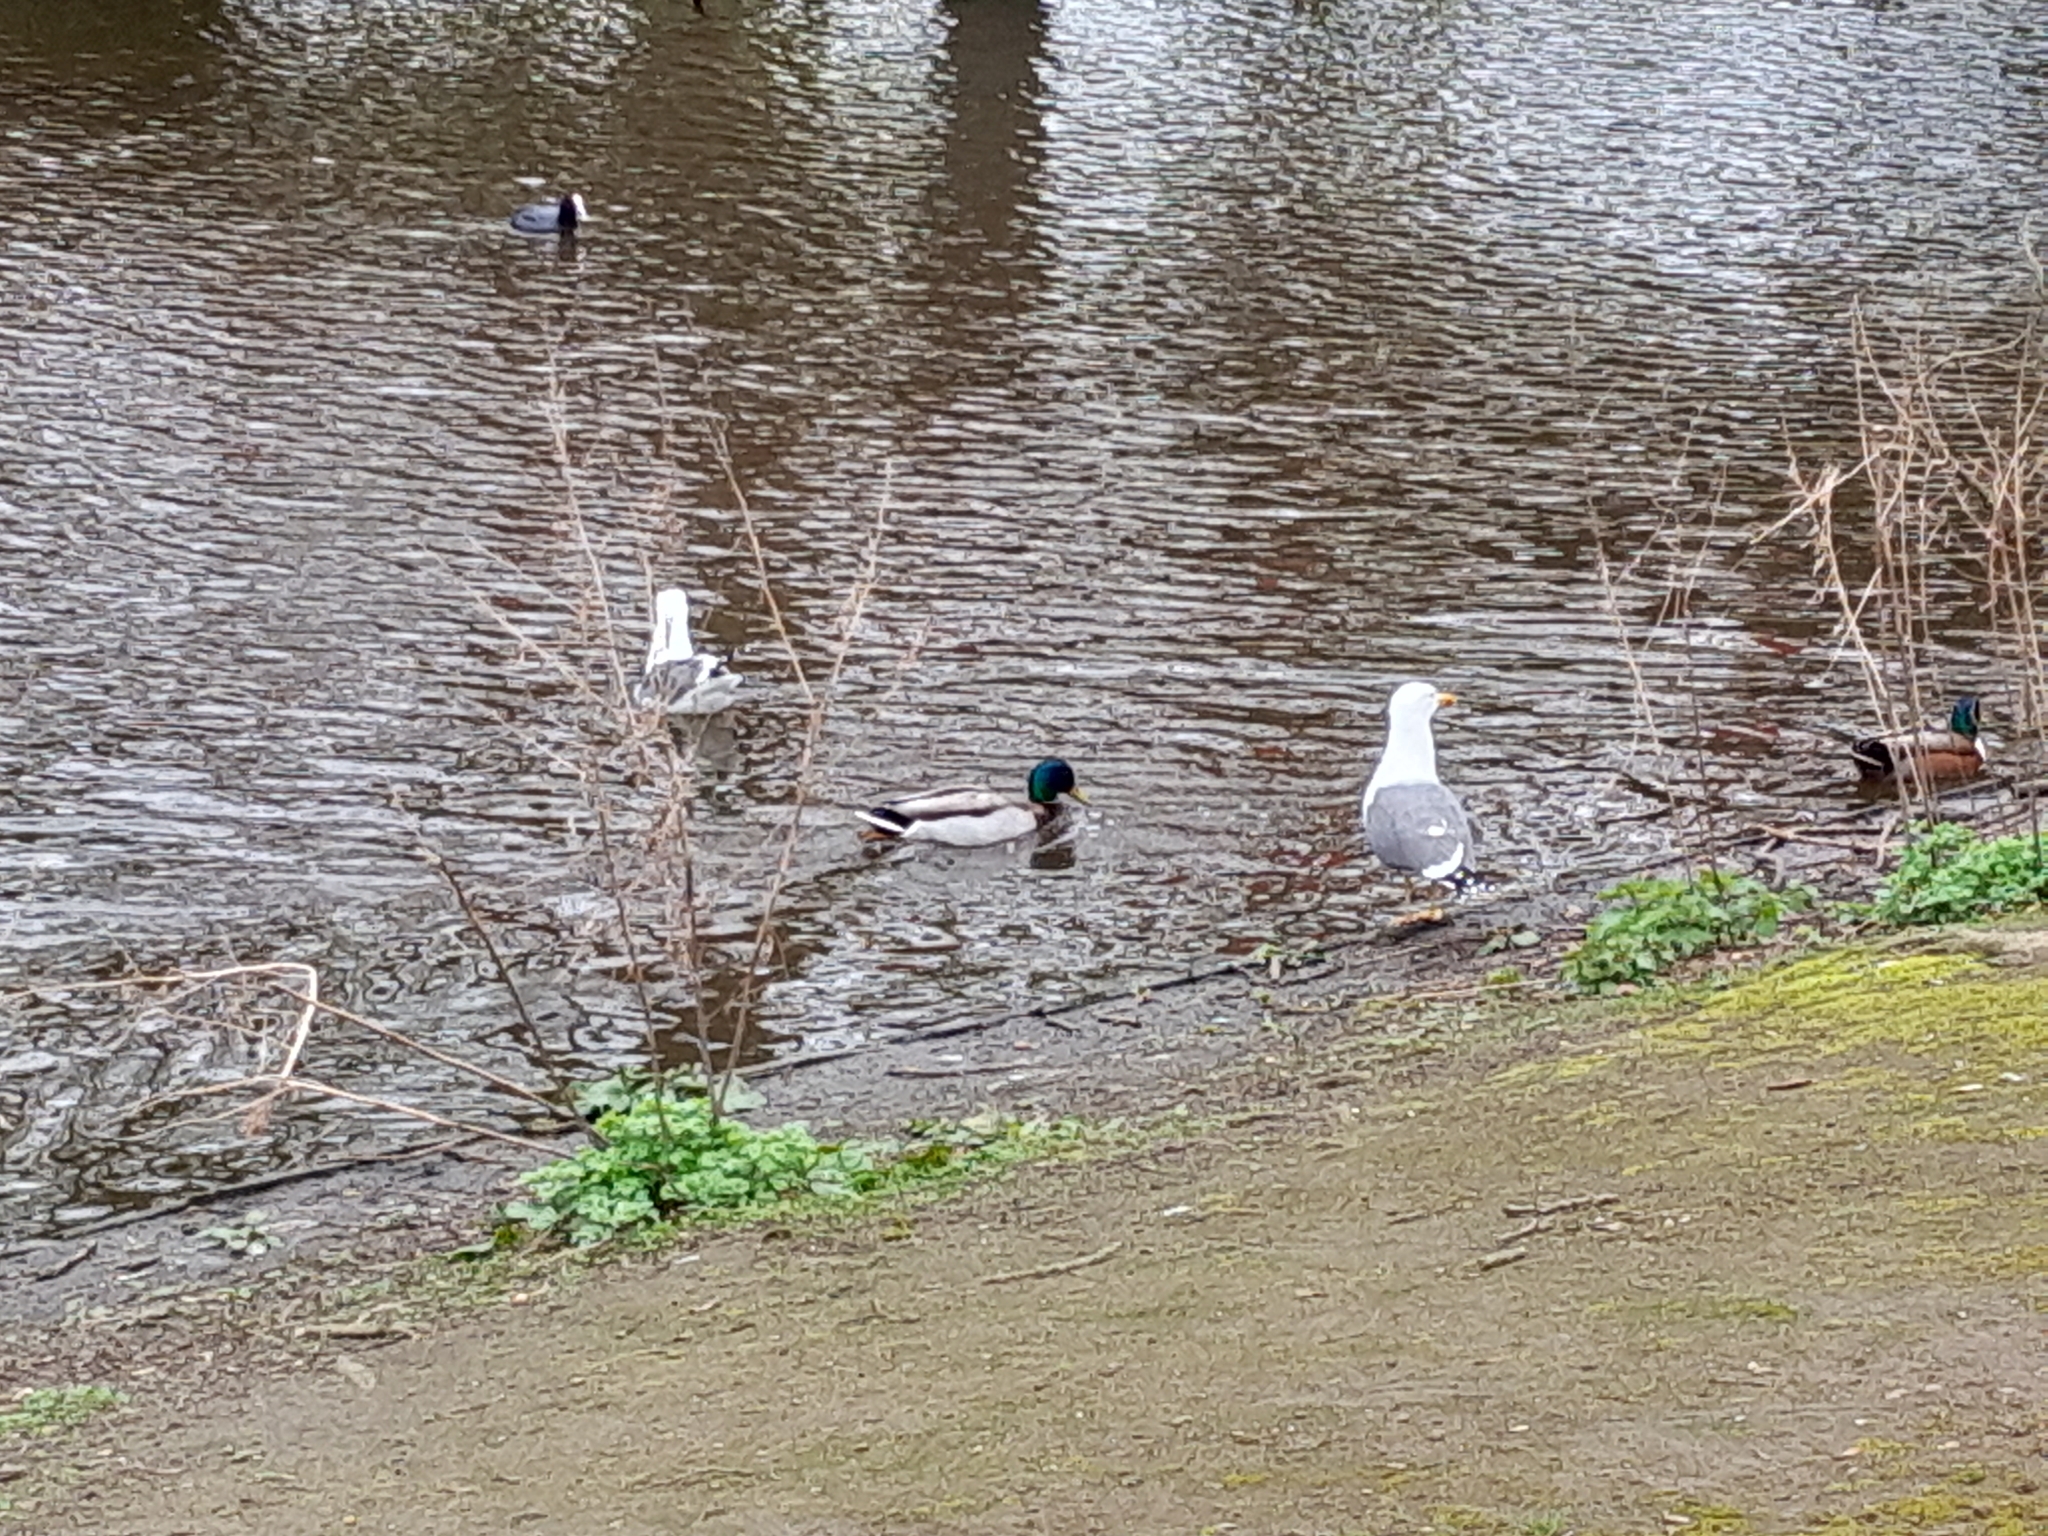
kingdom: Animalia
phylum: Chordata
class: Aves
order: Gruiformes
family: Rallidae
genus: Fulica
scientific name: Fulica atra
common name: Eurasian coot
